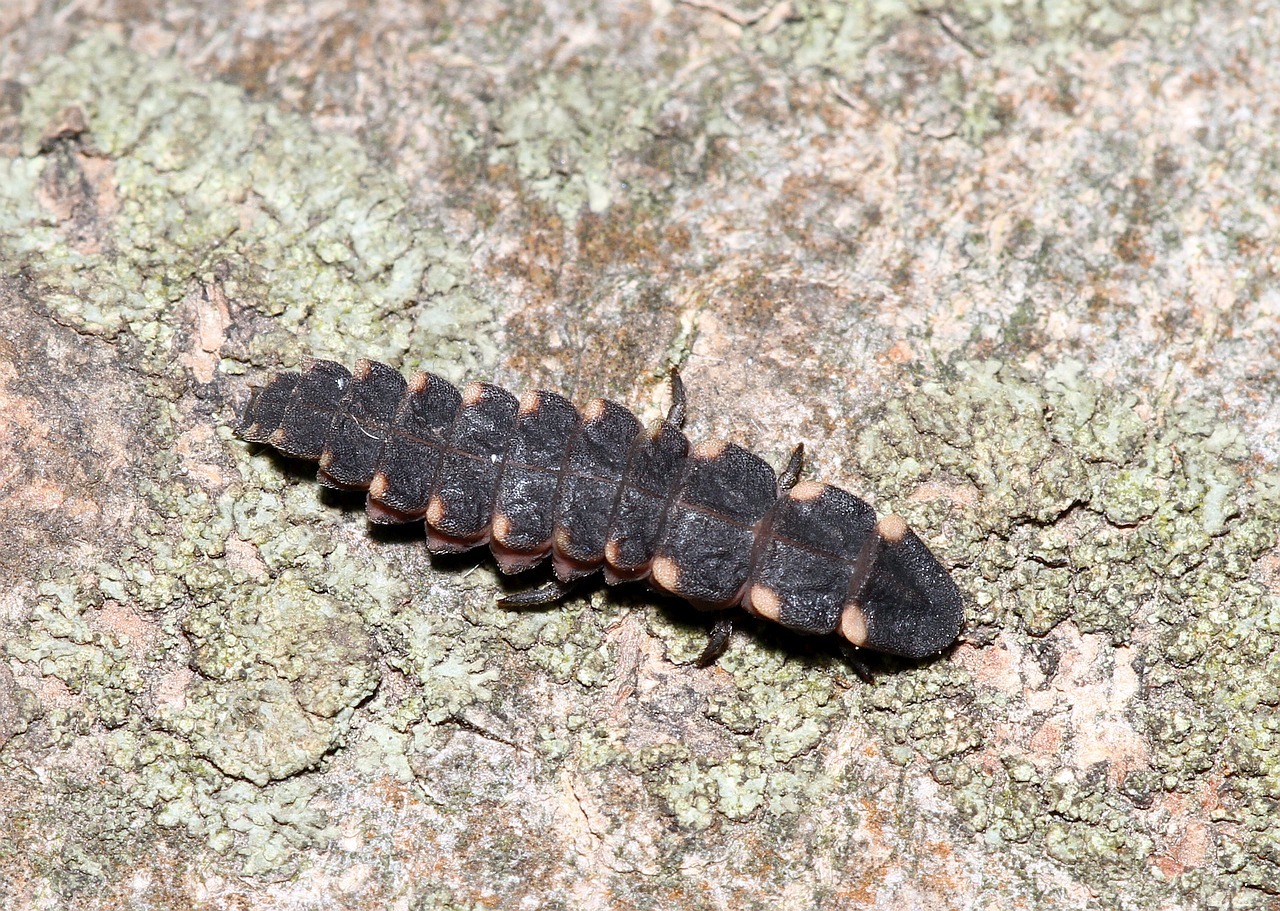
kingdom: Animalia
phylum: Arthropoda
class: Insecta
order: Coleoptera
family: Lampyridae
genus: Lampyris
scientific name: Lampyris noctiluca
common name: Glow-worm
